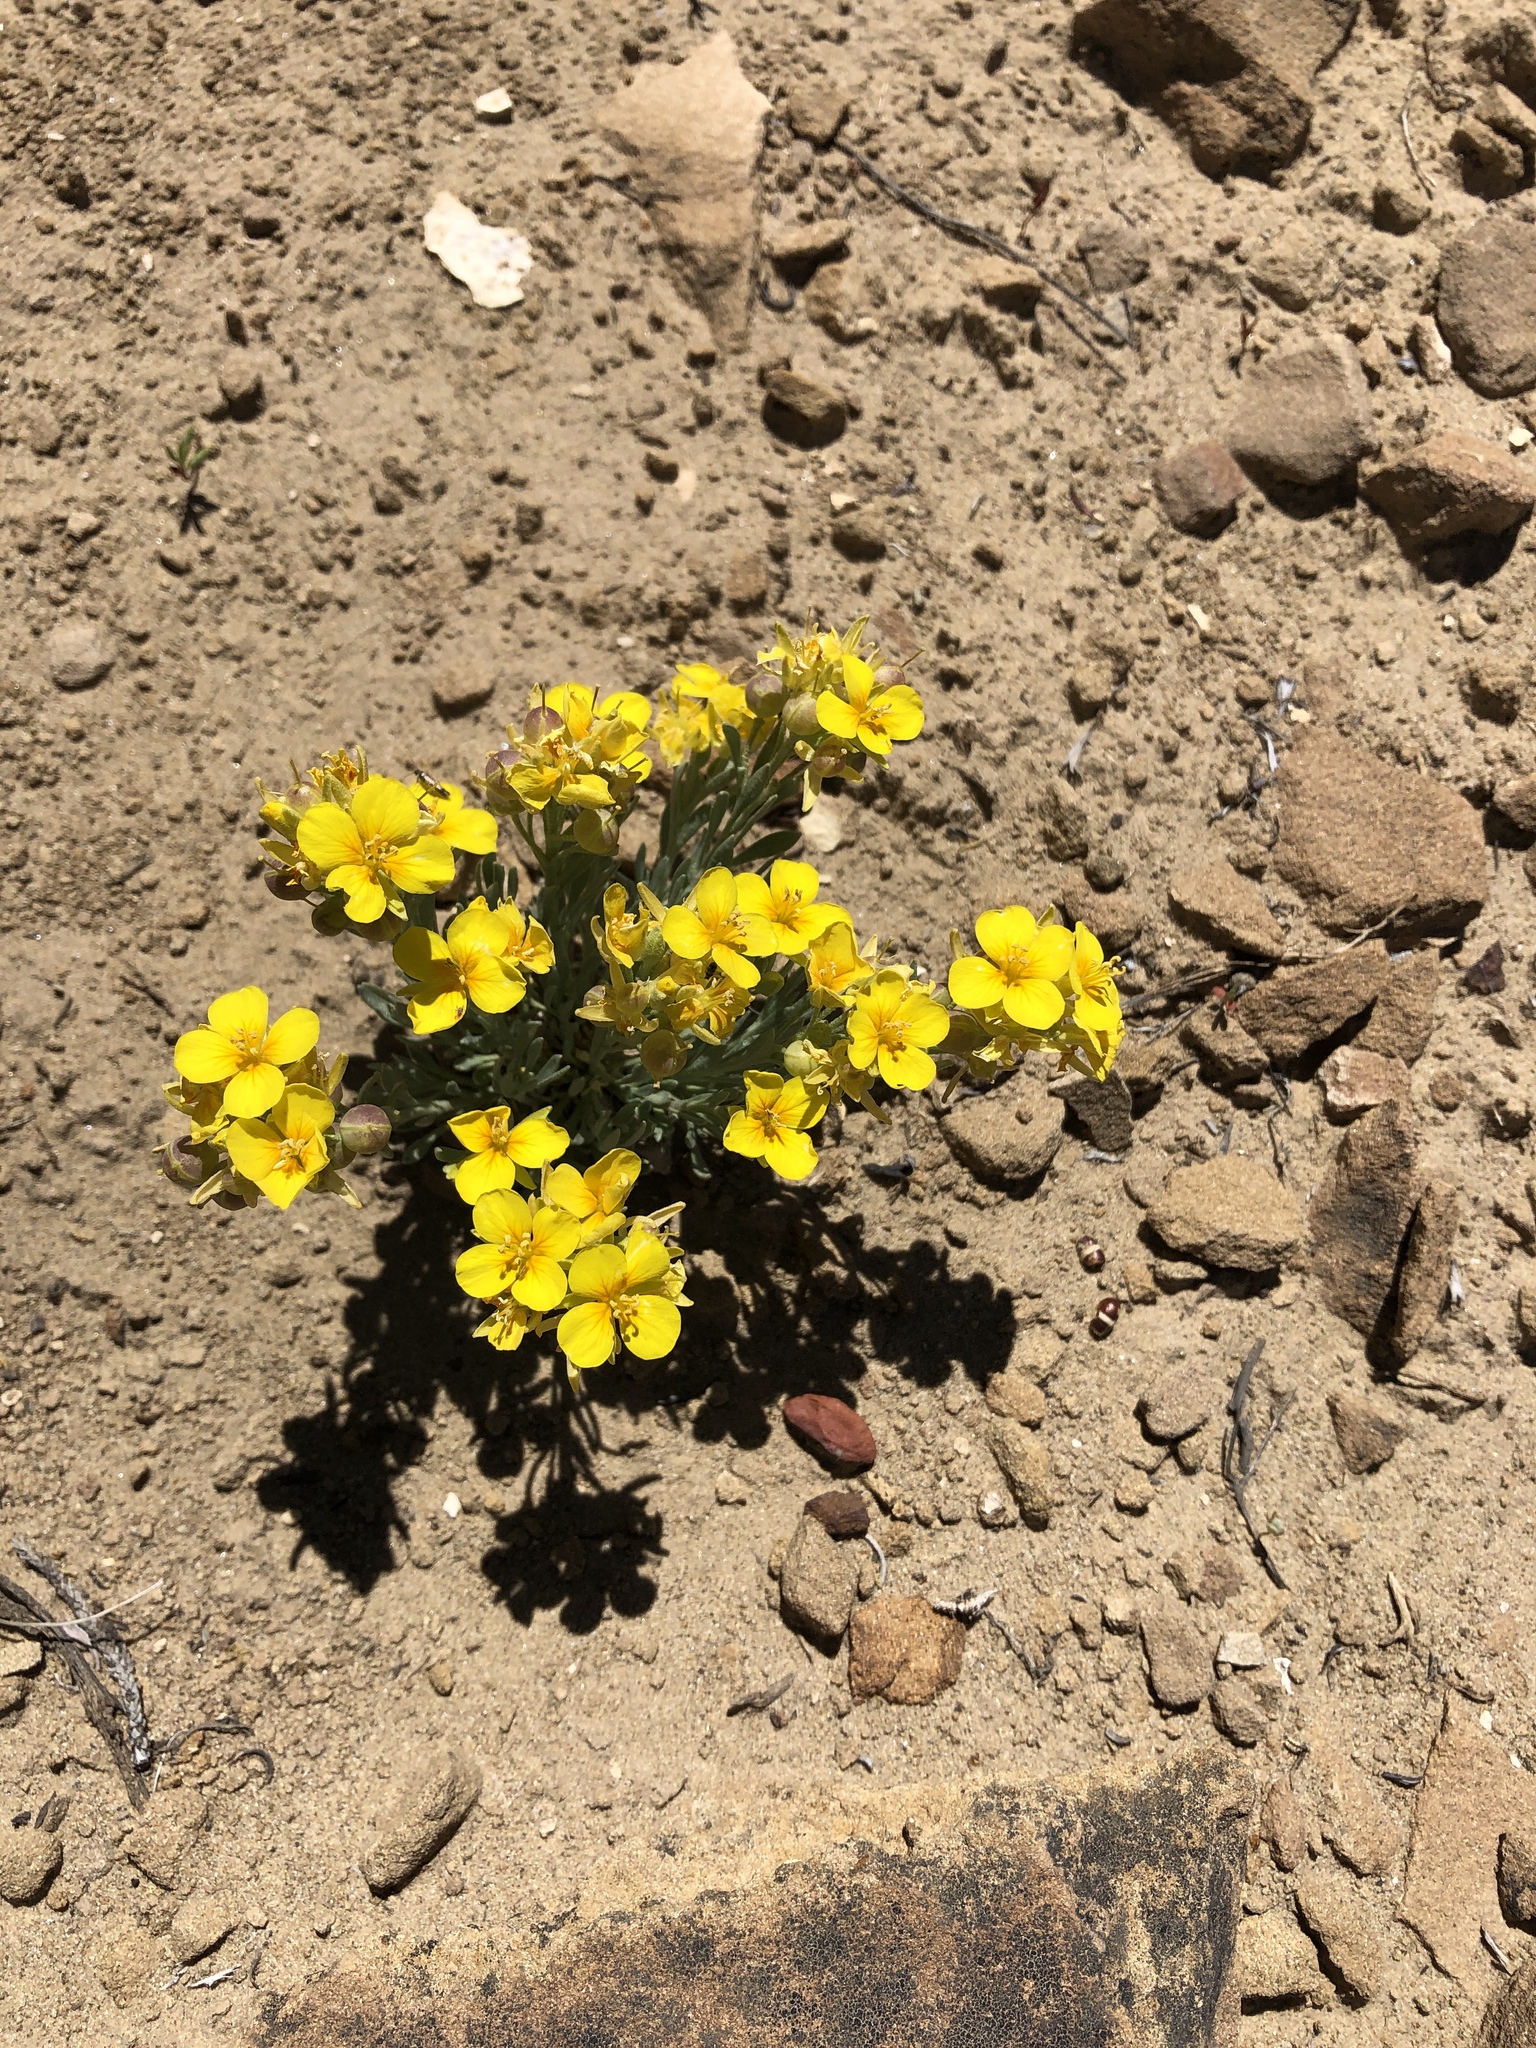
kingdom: Plantae
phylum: Tracheophyta
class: Magnoliopsida
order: Brassicales
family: Brassicaceae
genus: Physaria
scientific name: Physaria fendleri
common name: Fendler's bladderpod
